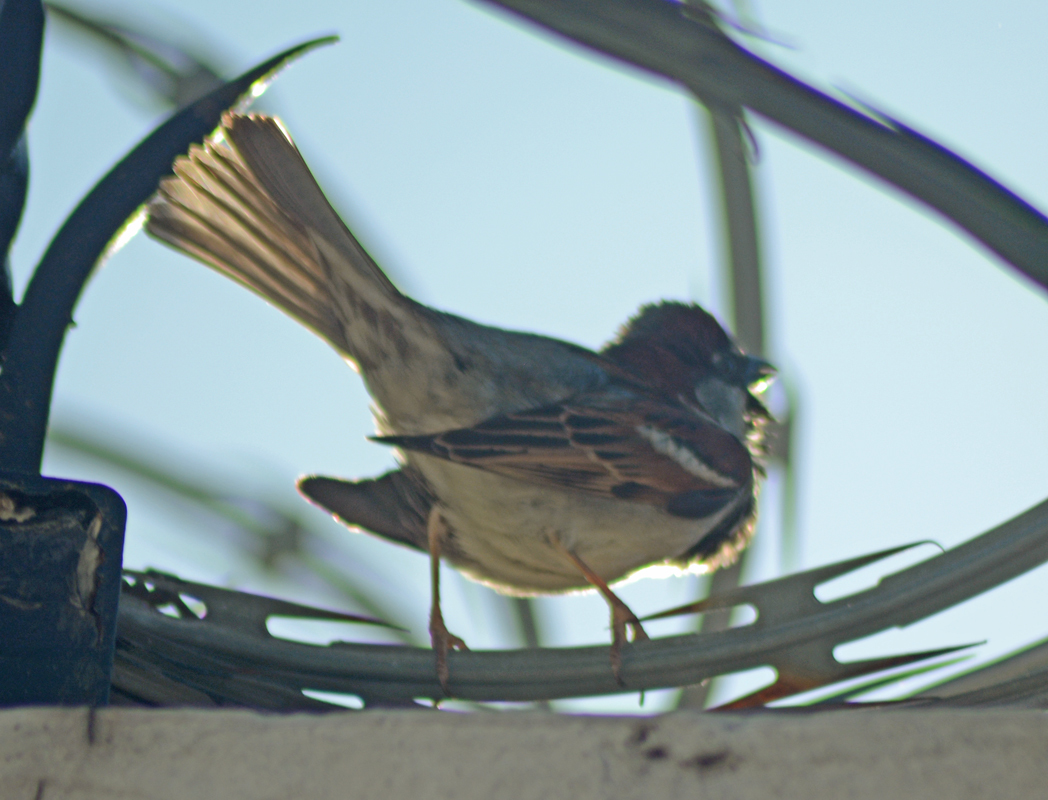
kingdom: Animalia
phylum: Chordata
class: Aves
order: Passeriformes
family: Passeridae
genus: Passer
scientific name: Passer domesticus
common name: House sparrow
